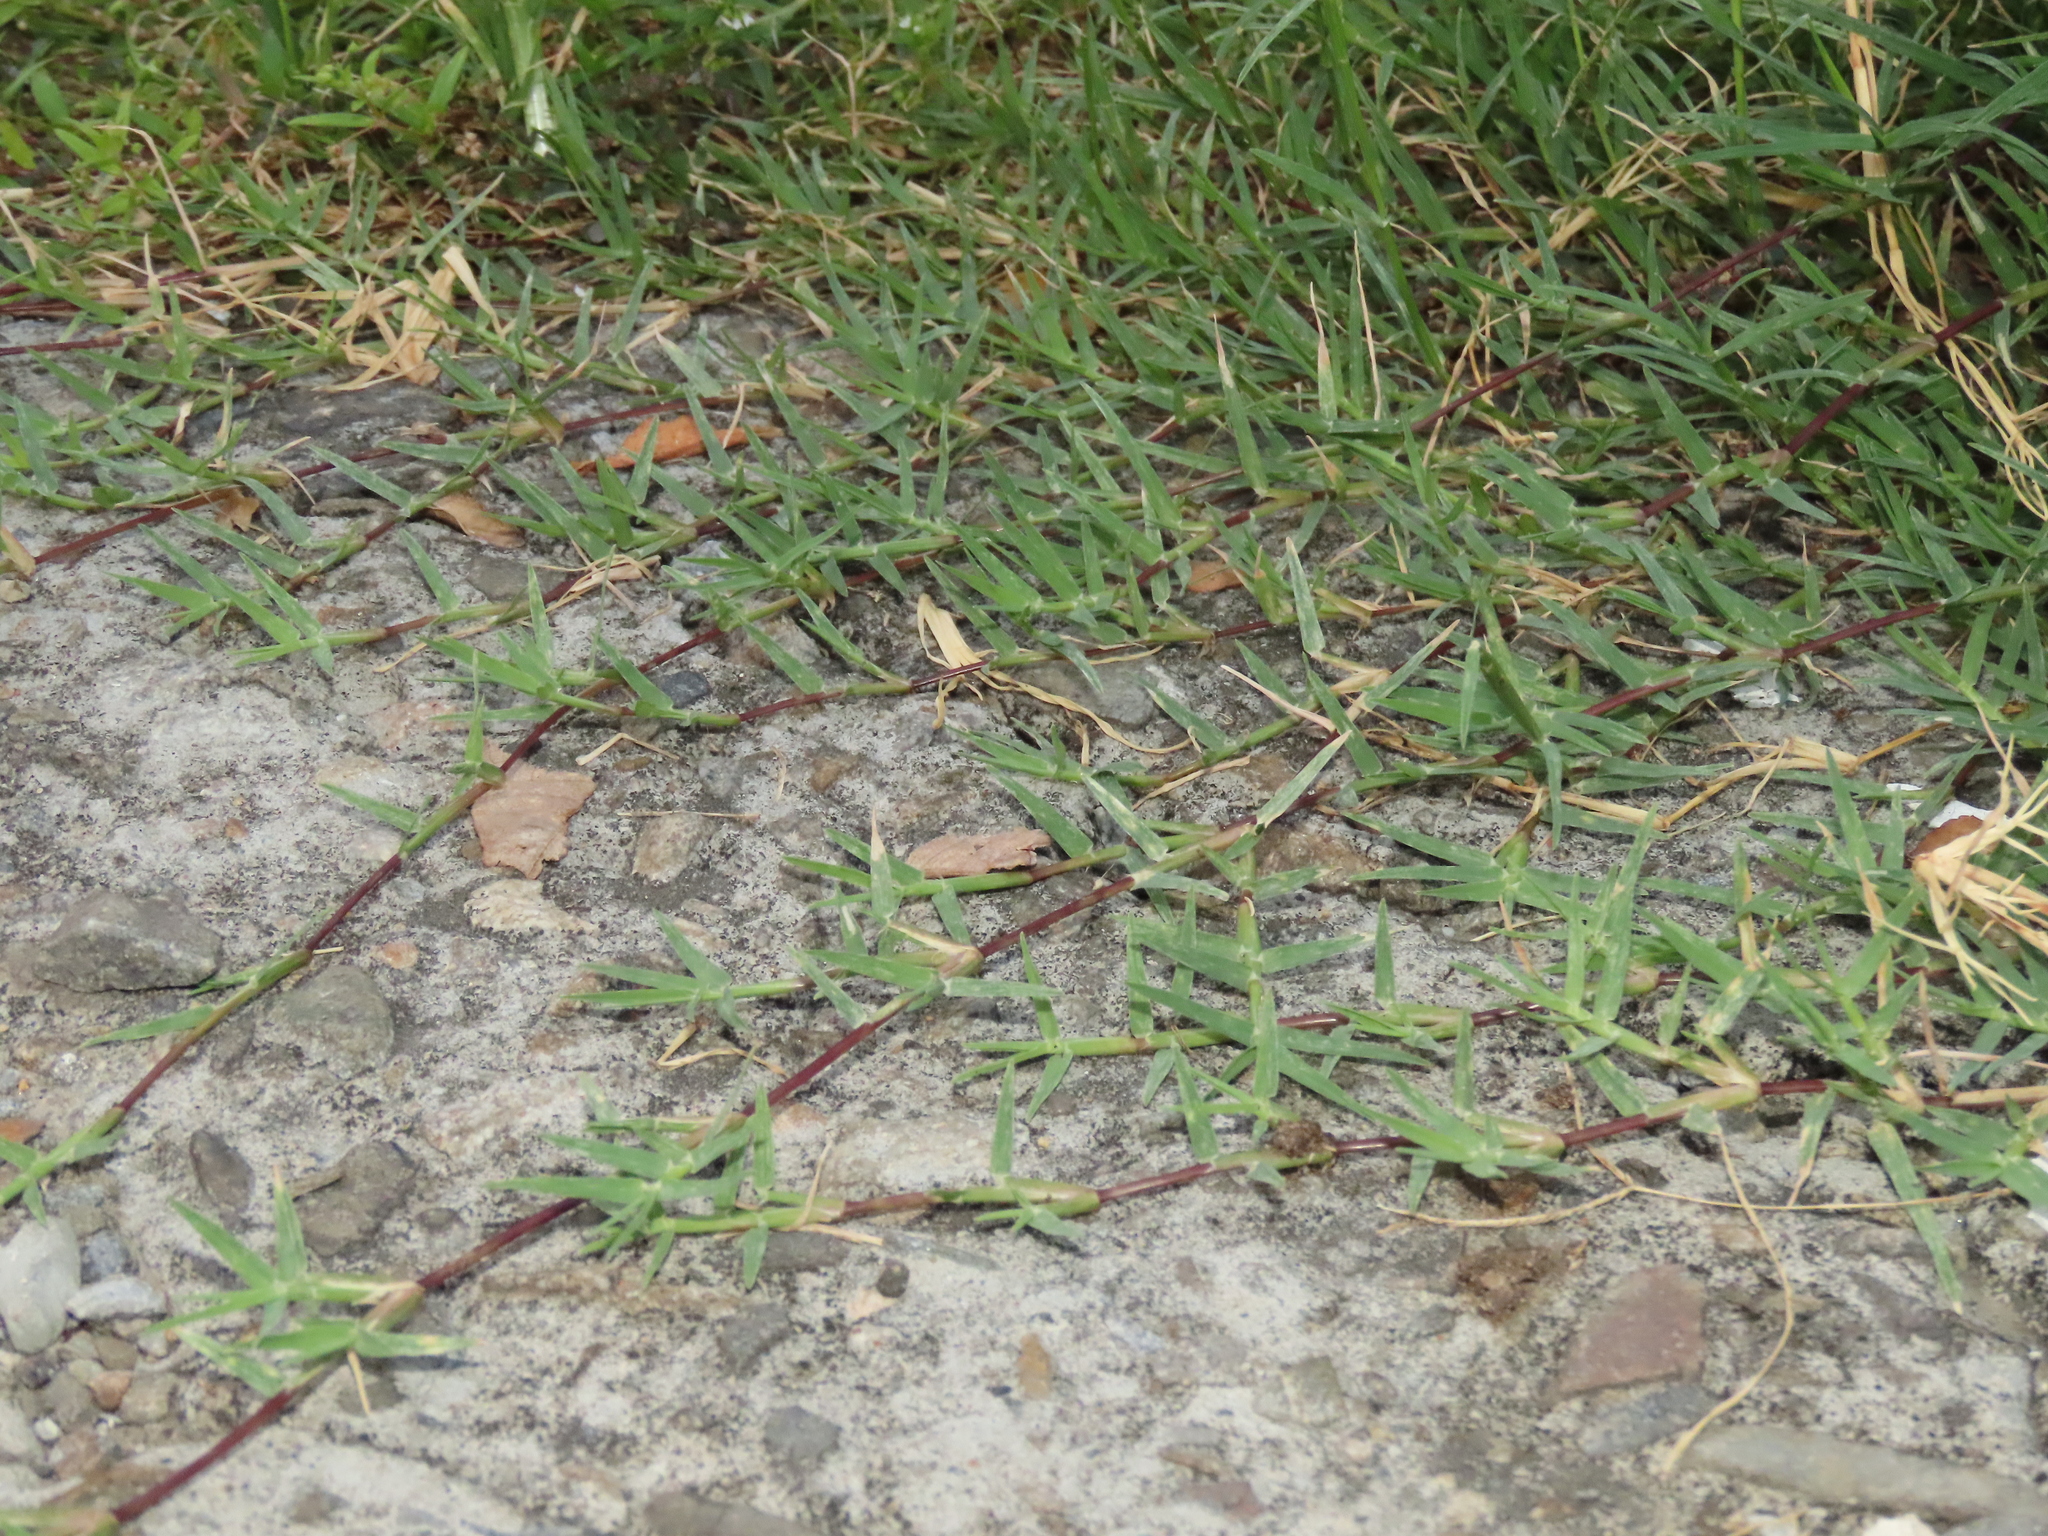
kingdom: Plantae
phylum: Tracheophyta
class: Liliopsida
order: Poales
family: Poaceae
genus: Cynodon
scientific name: Cynodon dactylon
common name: Bermuda grass
